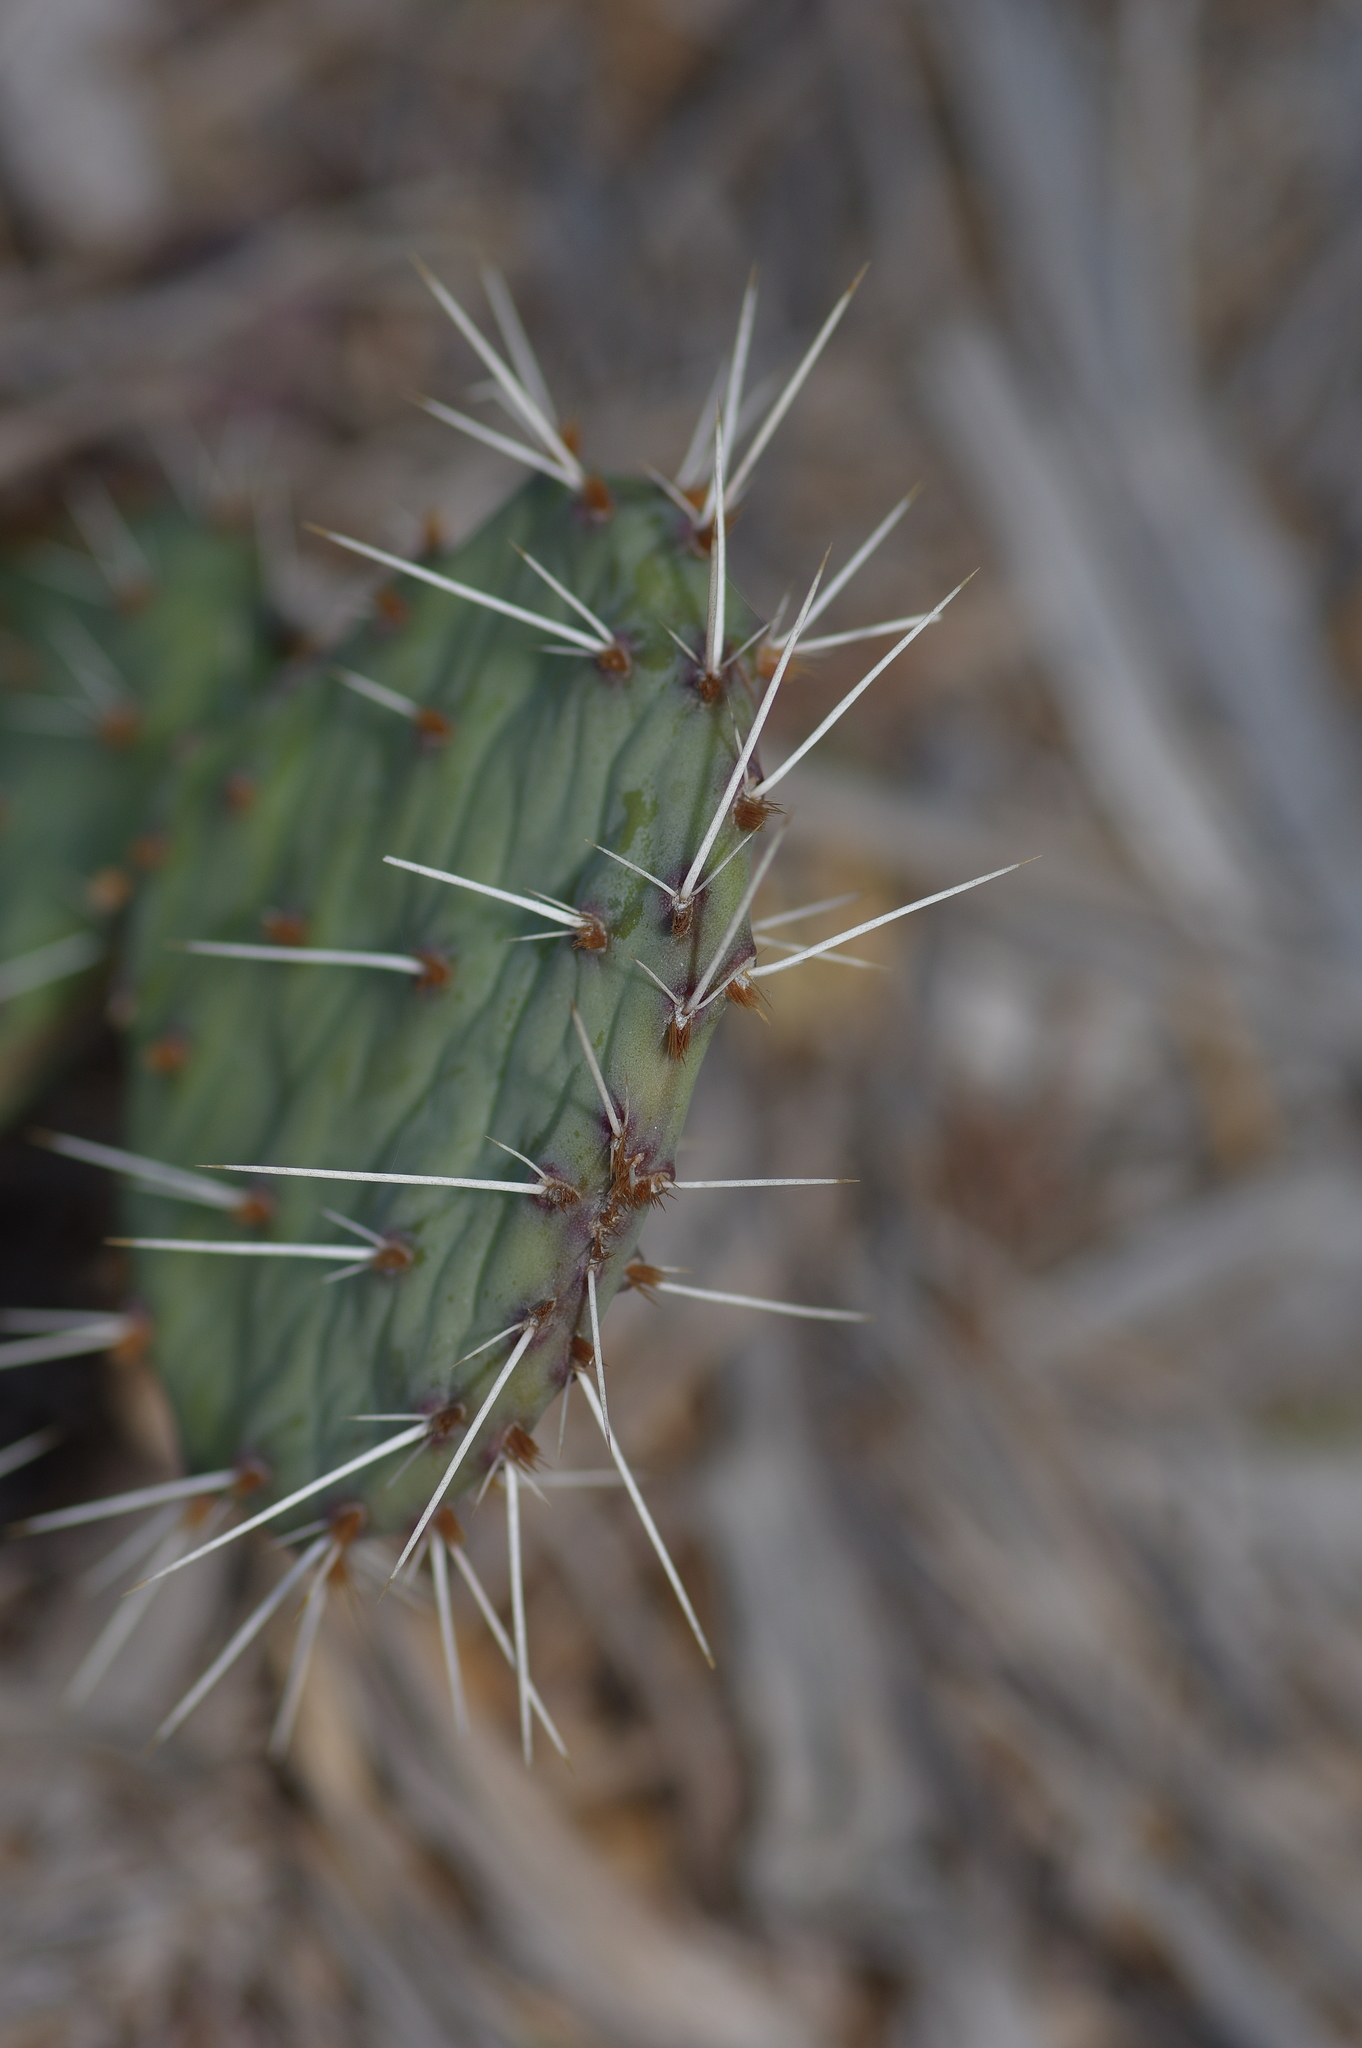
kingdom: Plantae
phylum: Tracheophyta
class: Magnoliopsida
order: Caryophyllales
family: Cactaceae
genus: Opuntia
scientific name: Opuntia macrorhiza
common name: Grassland pricklypear
